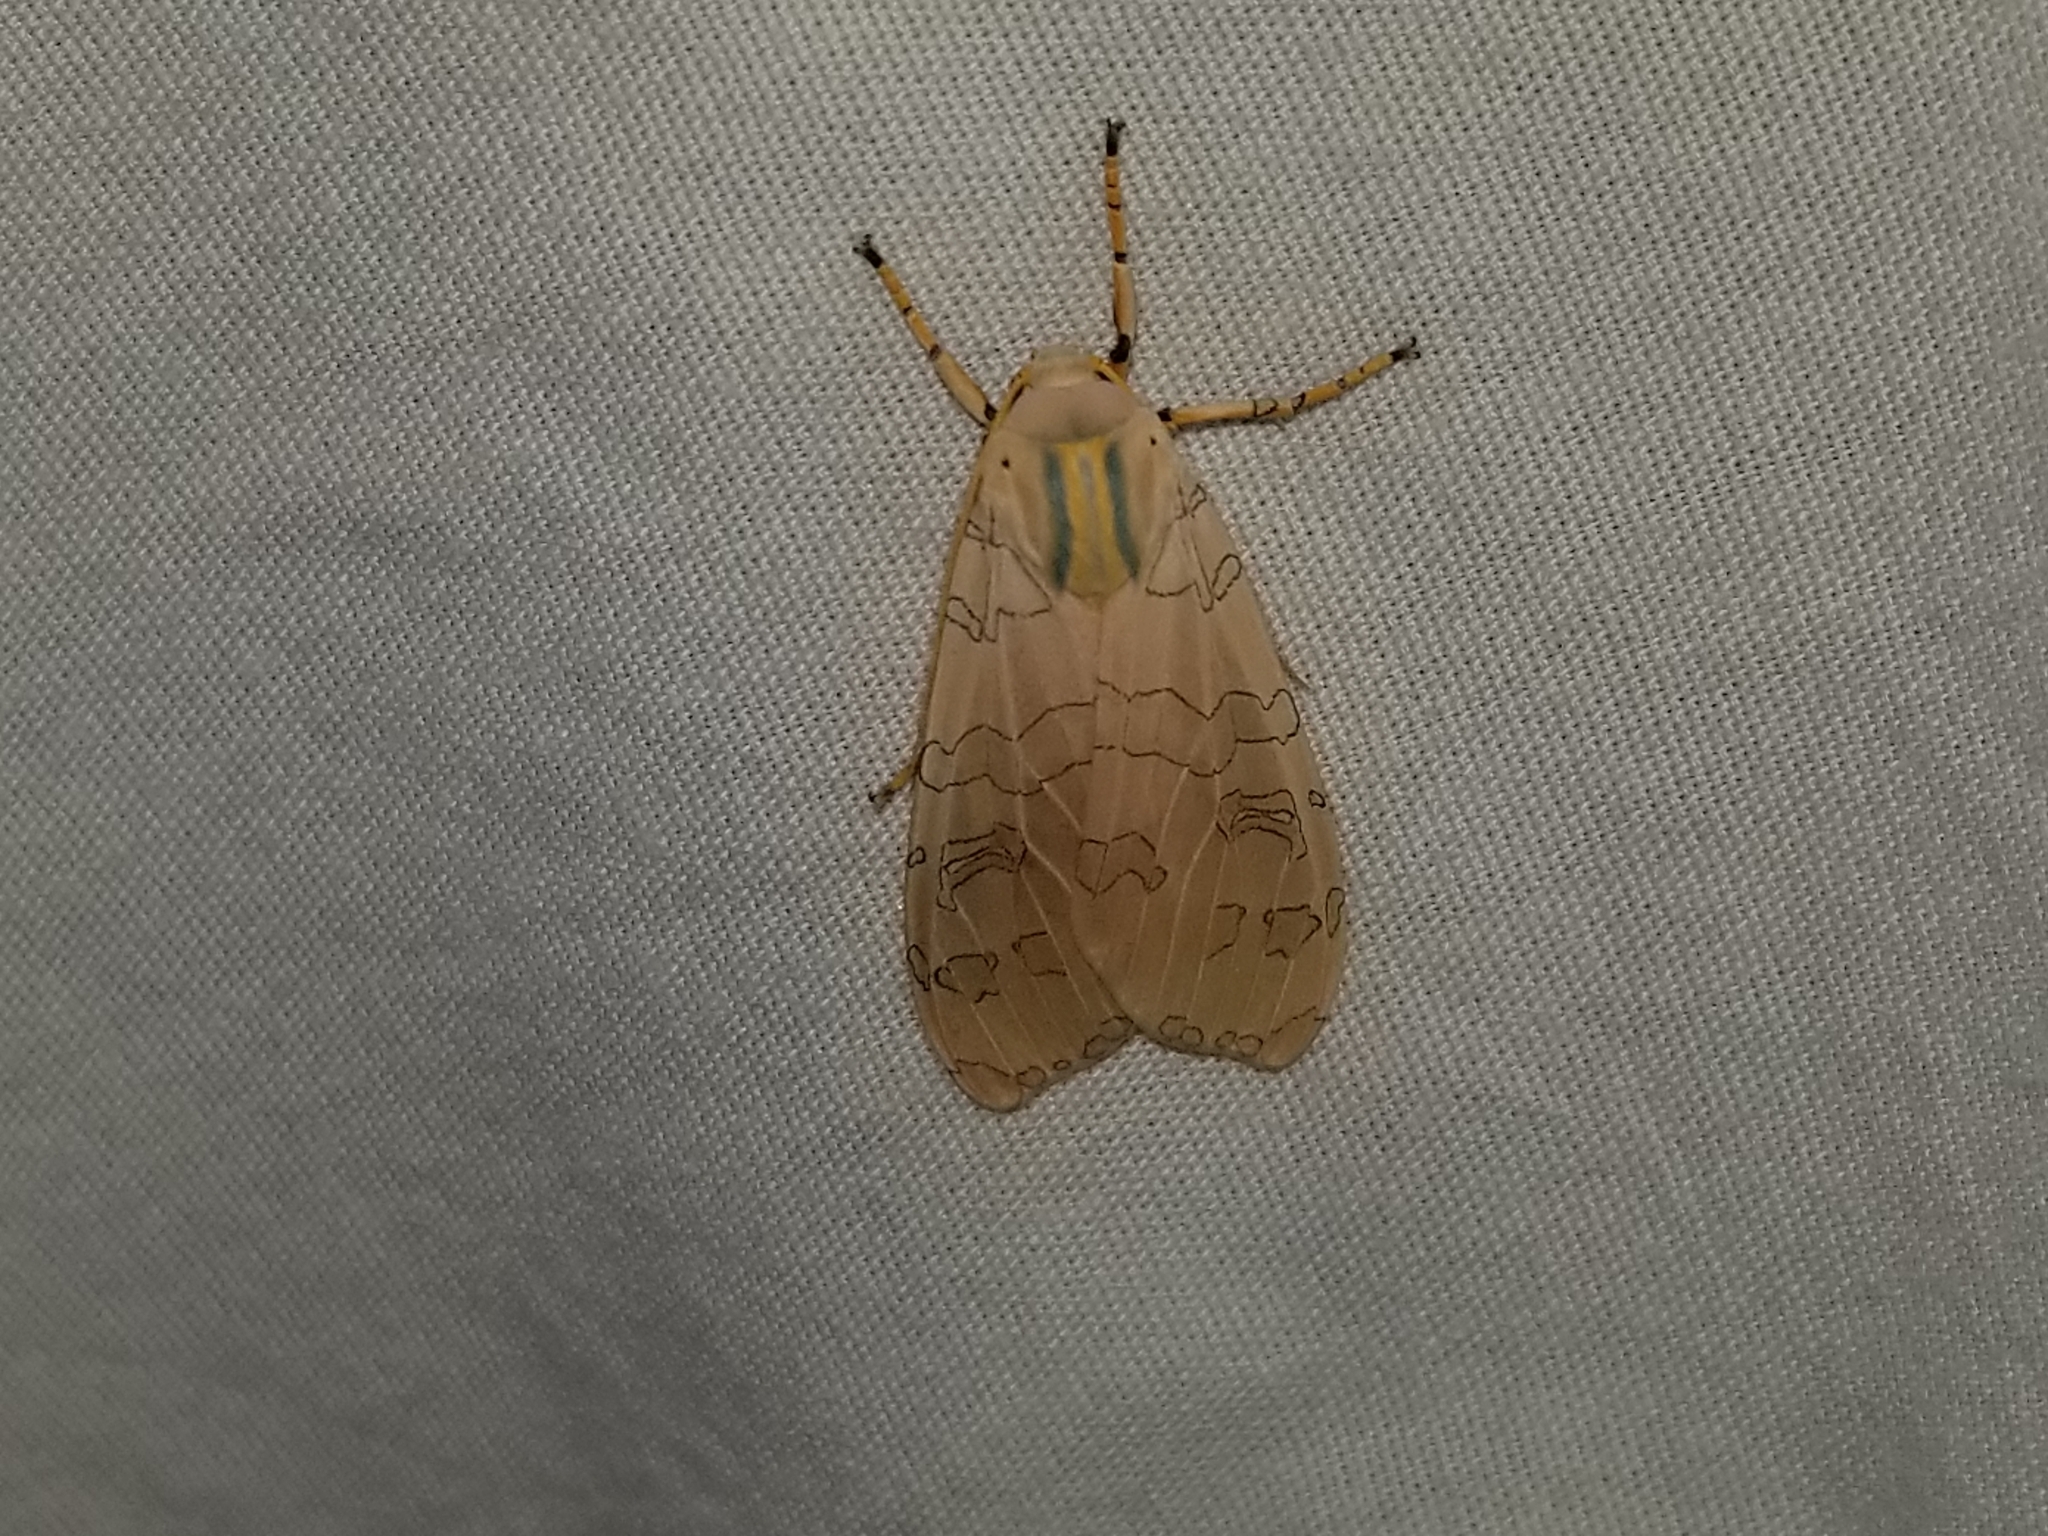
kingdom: Animalia
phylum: Arthropoda
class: Insecta
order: Lepidoptera
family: Erebidae
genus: Halysidota
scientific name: Halysidota
